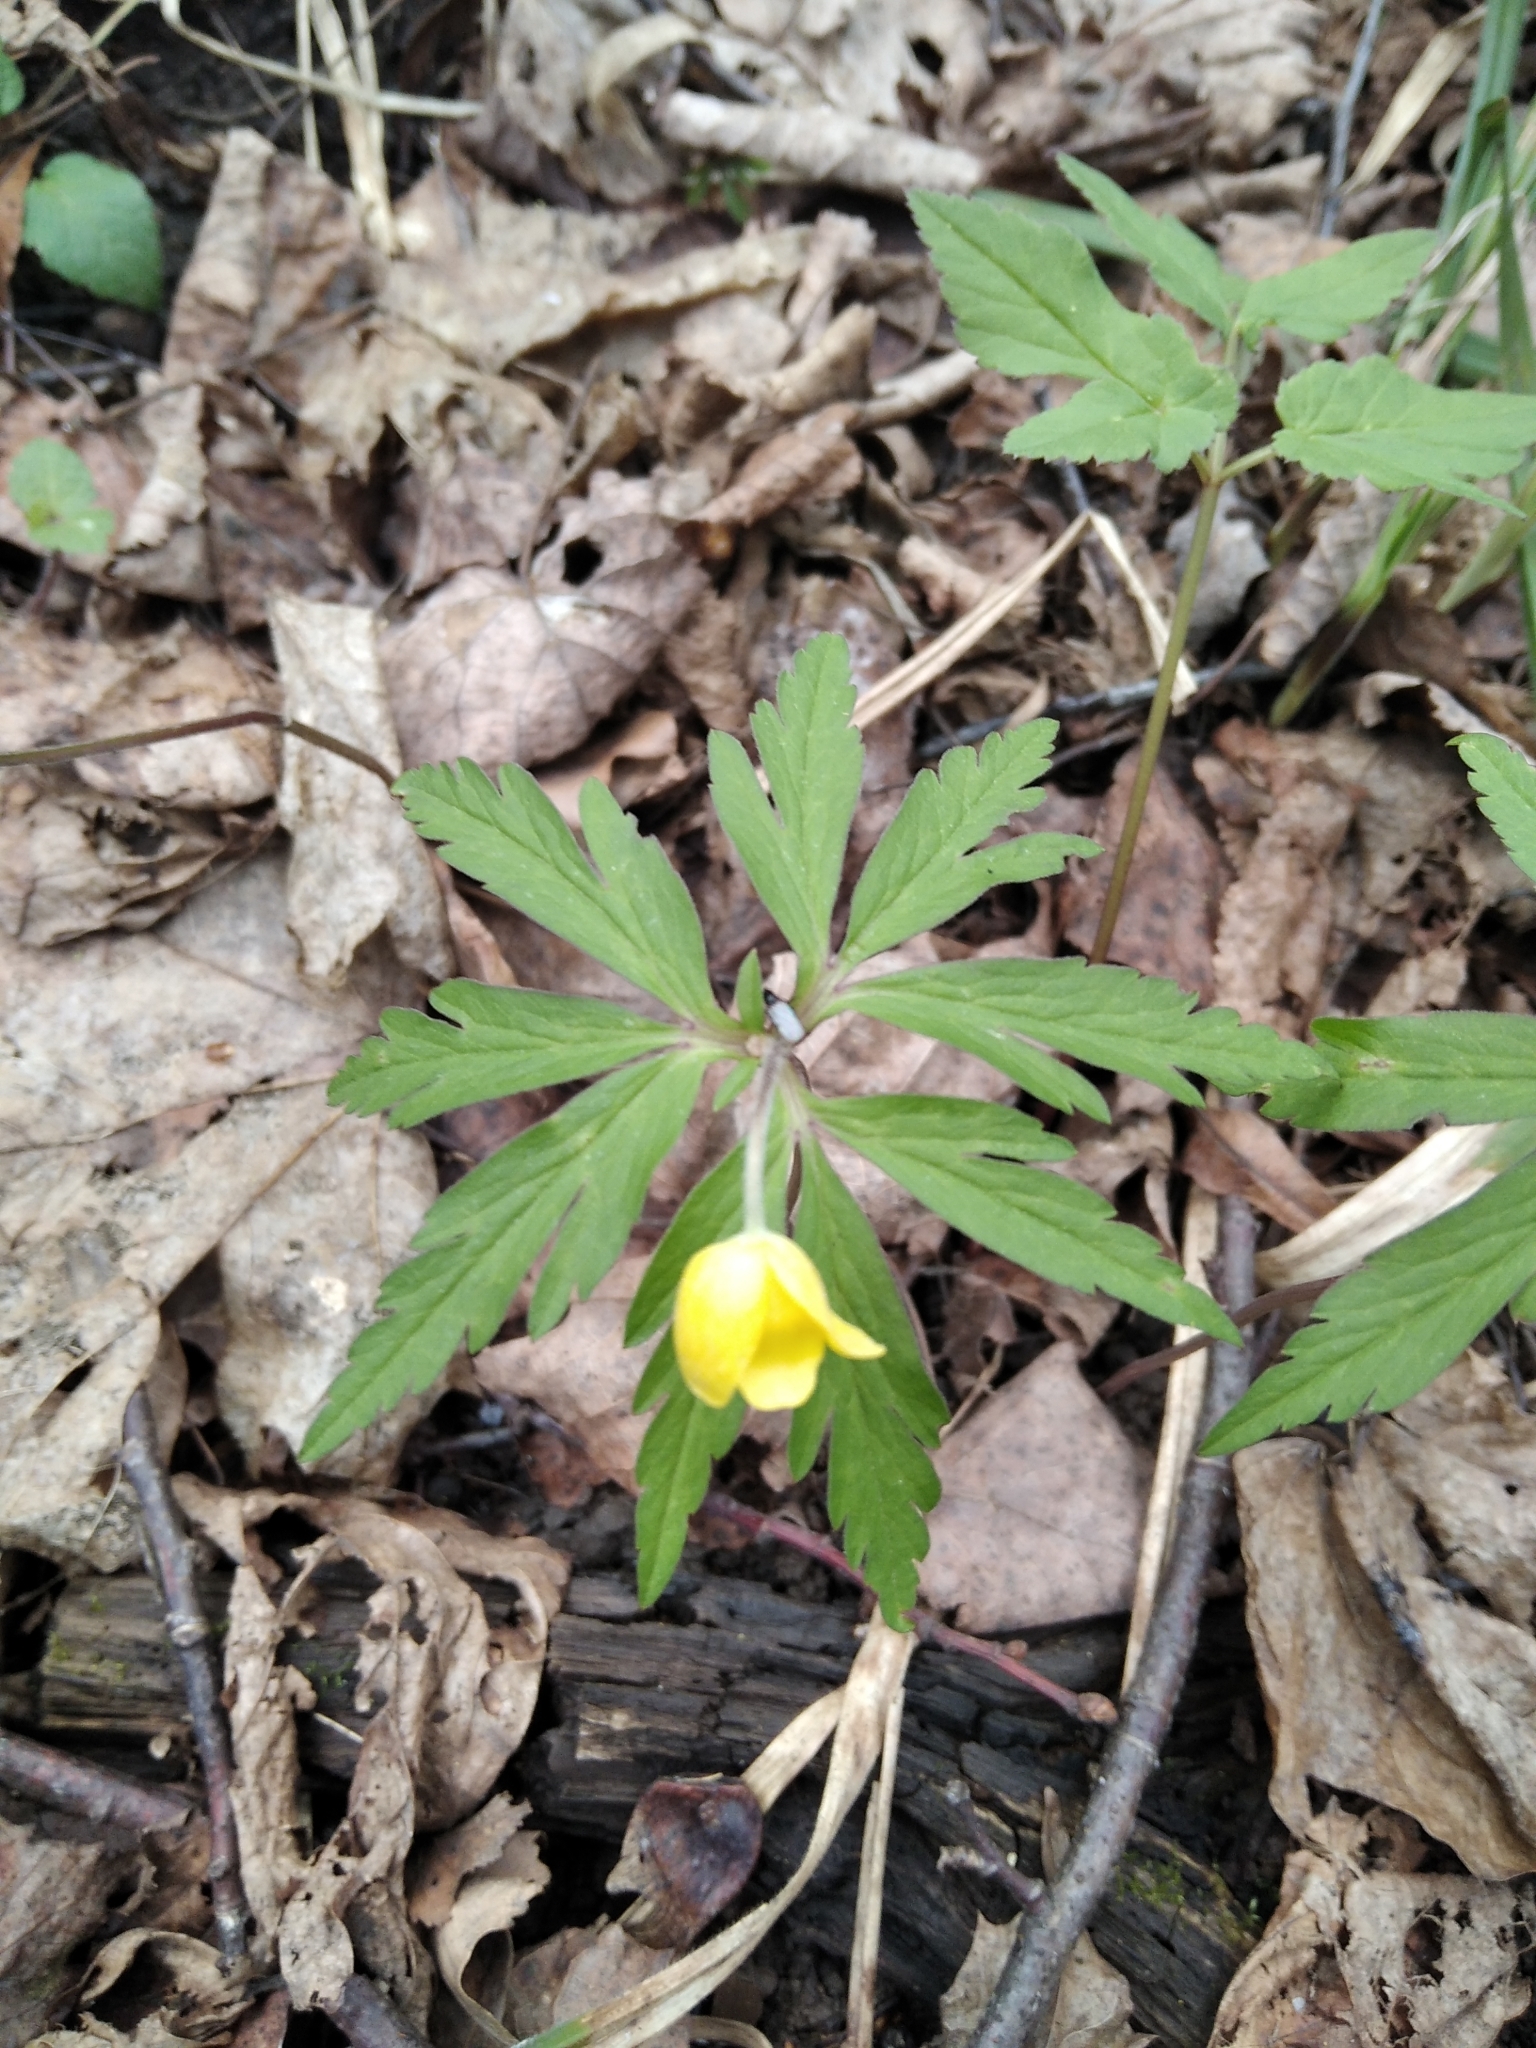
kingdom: Plantae
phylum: Tracheophyta
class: Magnoliopsida
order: Ranunculales
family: Ranunculaceae
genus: Anemone
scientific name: Anemone ranunculoides
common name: Yellow anemone
